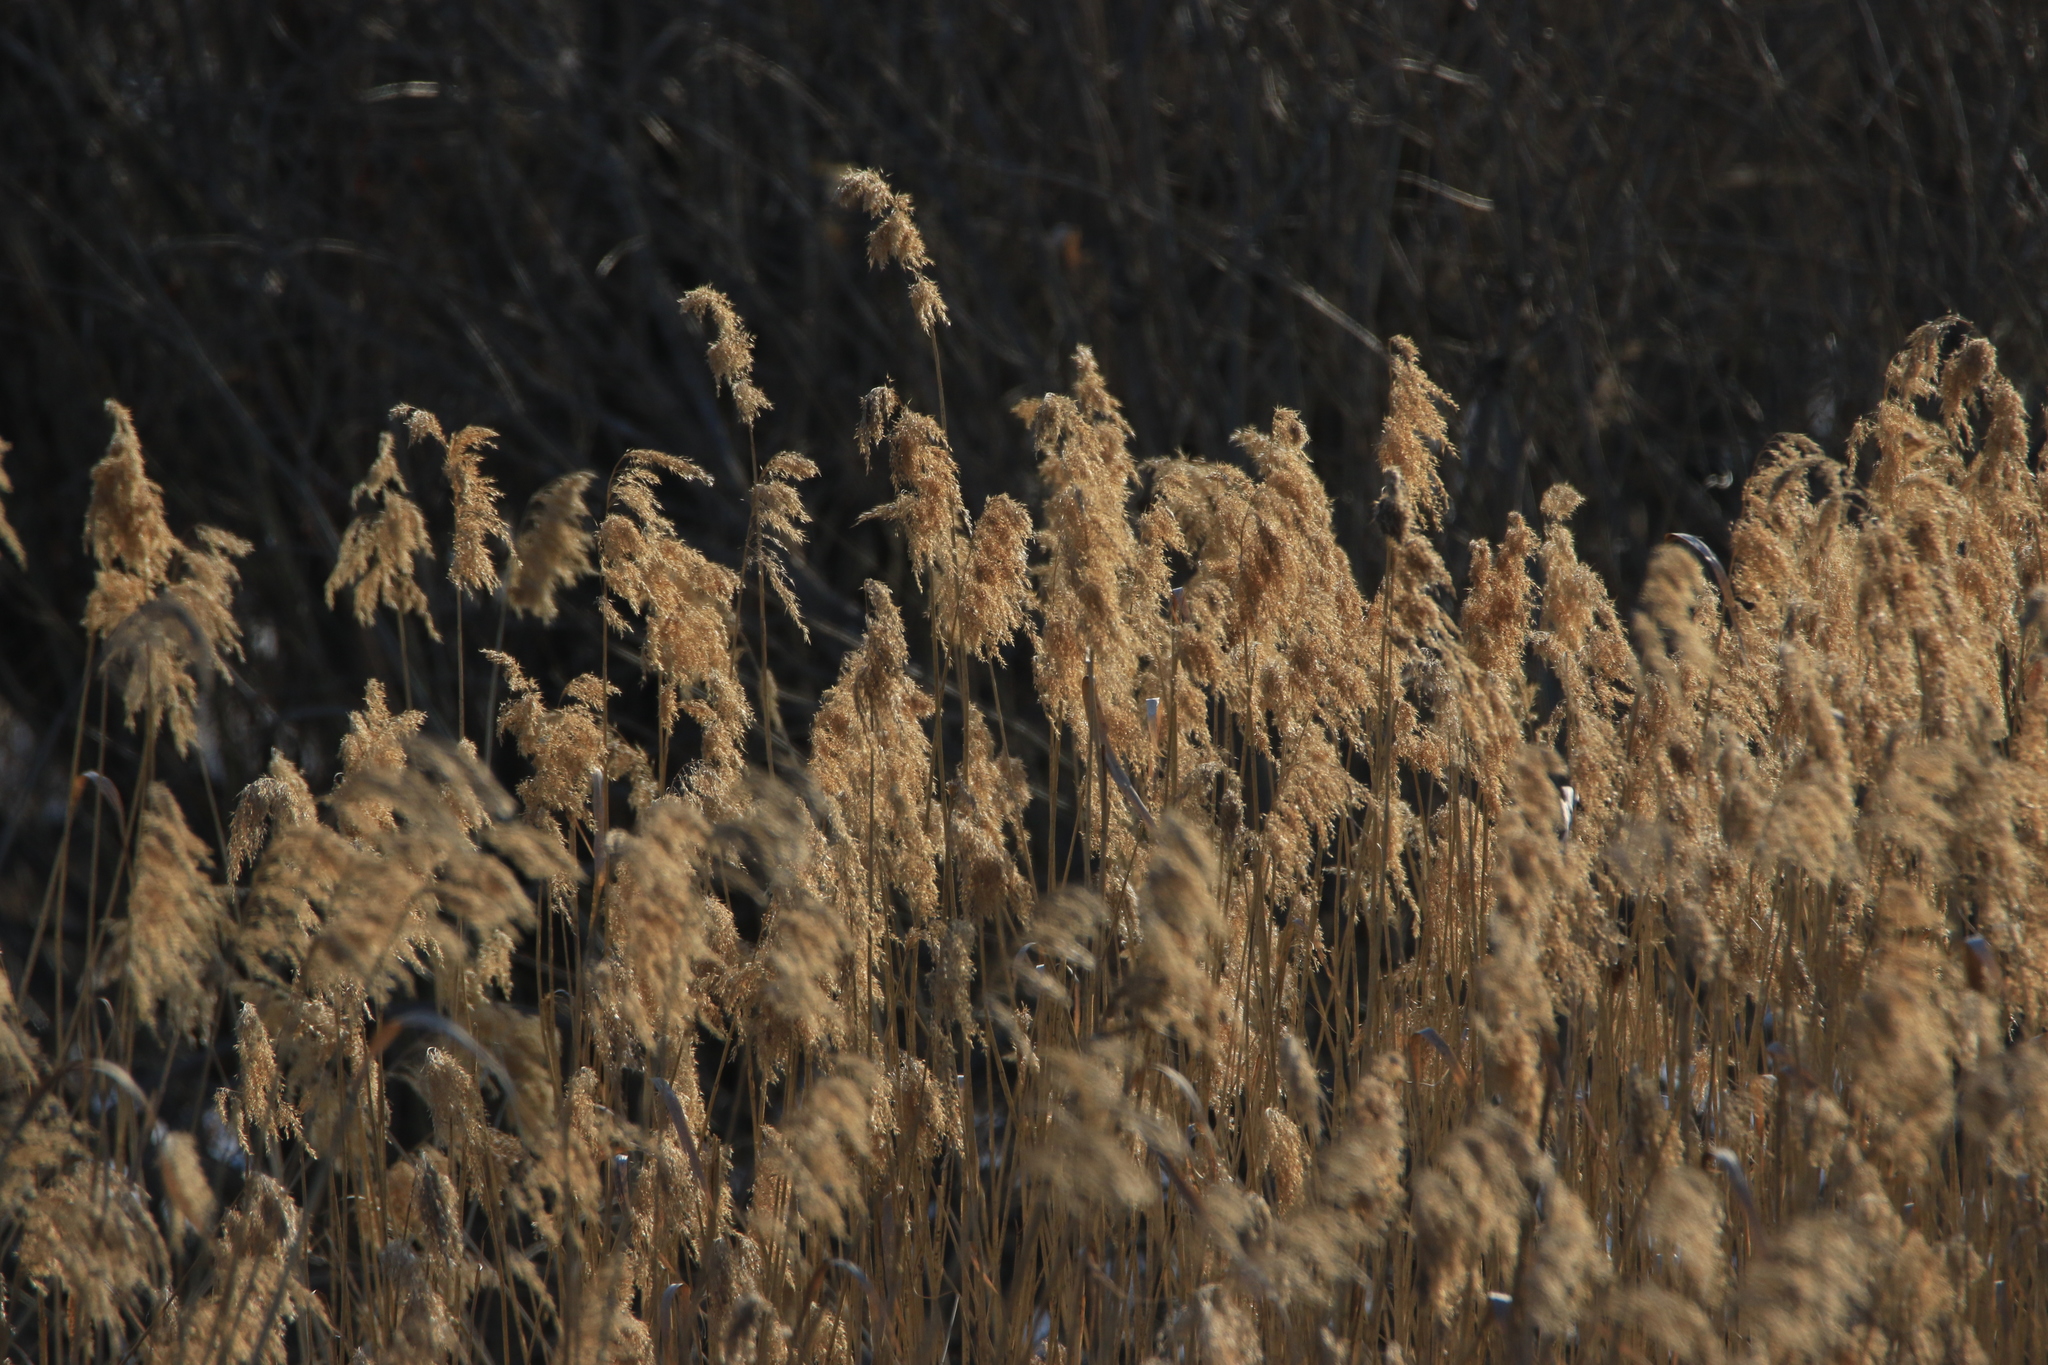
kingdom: Plantae
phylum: Tracheophyta
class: Liliopsida
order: Poales
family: Poaceae
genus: Phragmites
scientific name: Phragmites australis
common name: Common reed
